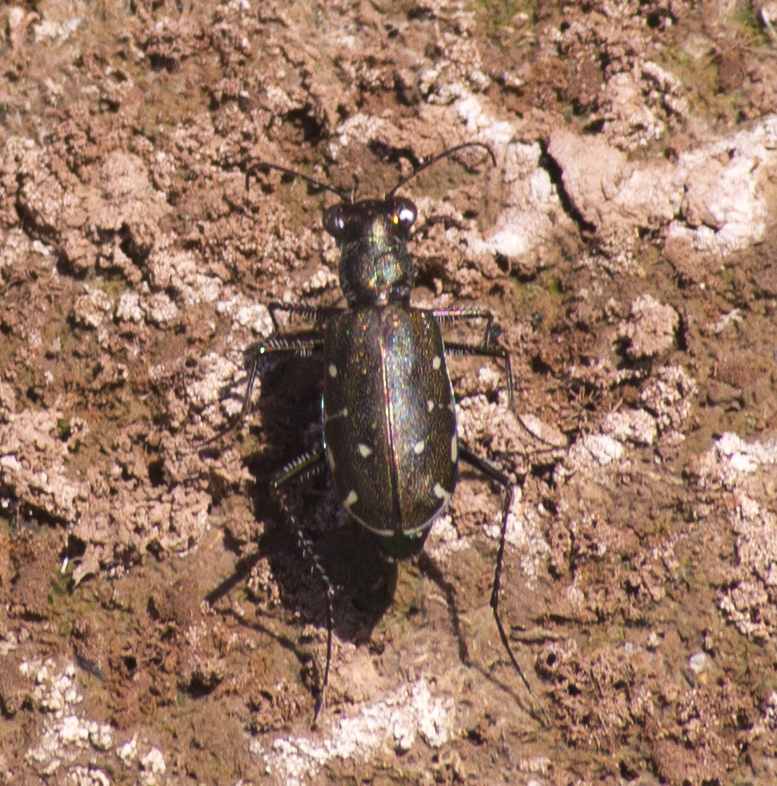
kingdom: Animalia
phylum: Arthropoda
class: Insecta
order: Coleoptera
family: Carabidae
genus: Cicindela
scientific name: Cicindela punctulata
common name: Punctured tiger beetle
